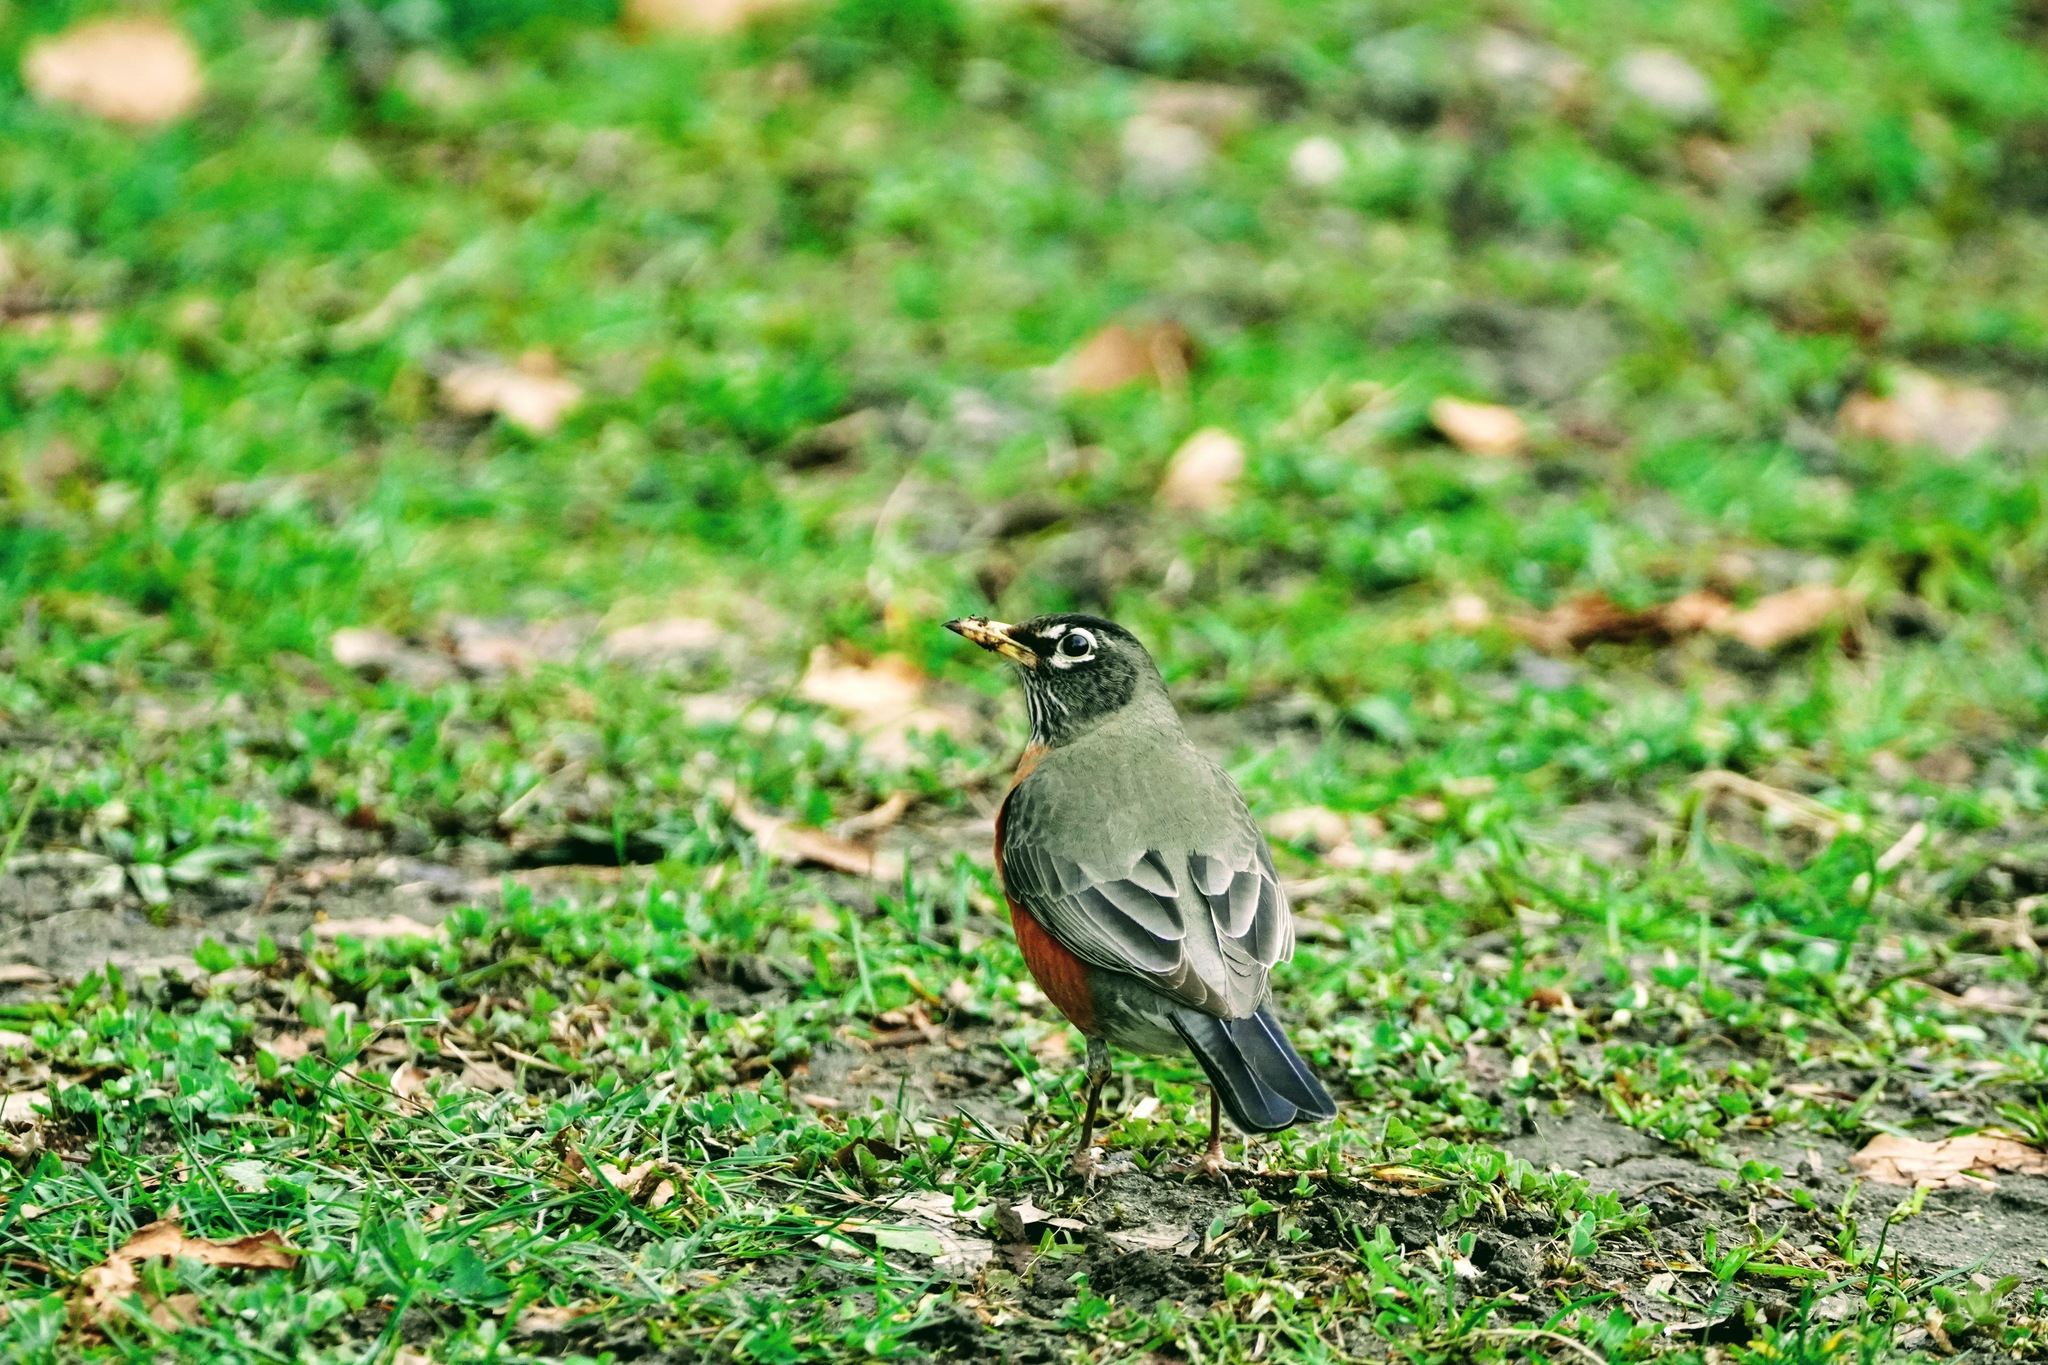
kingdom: Animalia
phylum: Chordata
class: Aves
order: Passeriformes
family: Turdidae
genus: Turdus
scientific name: Turdus migratorius
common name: American robin
